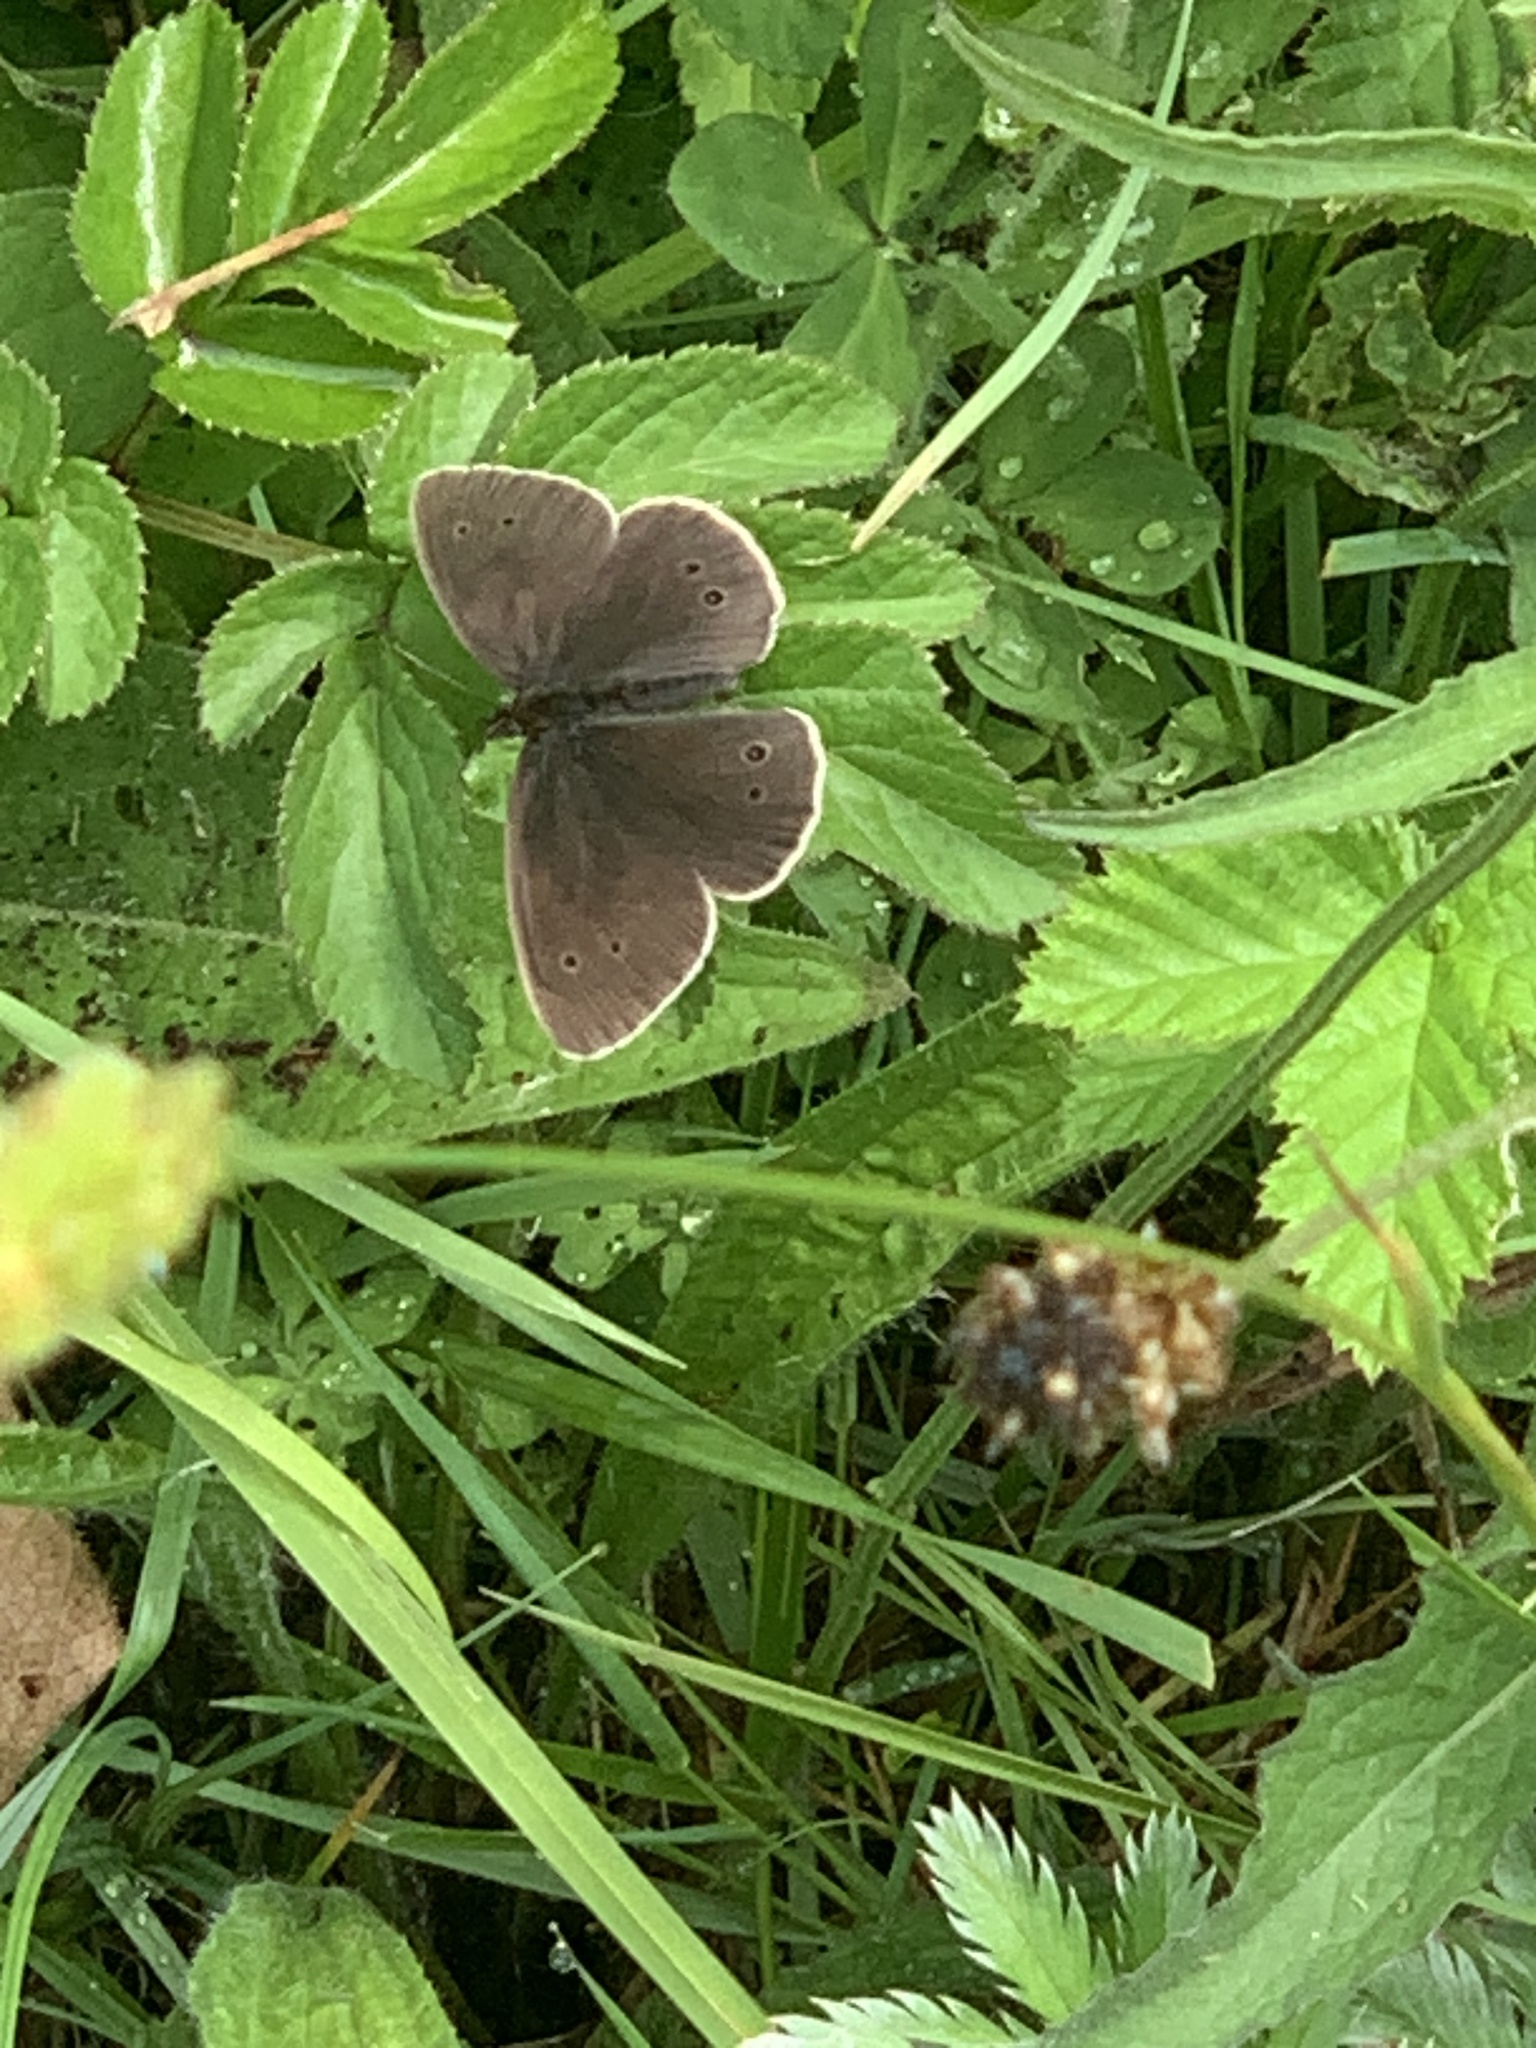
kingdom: Animalia
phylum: Arthropoda
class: Insecta
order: Lepidoptera
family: Nymphalidae
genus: Aphantopus
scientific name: Aphantopus hyperantus
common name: Ringlet
